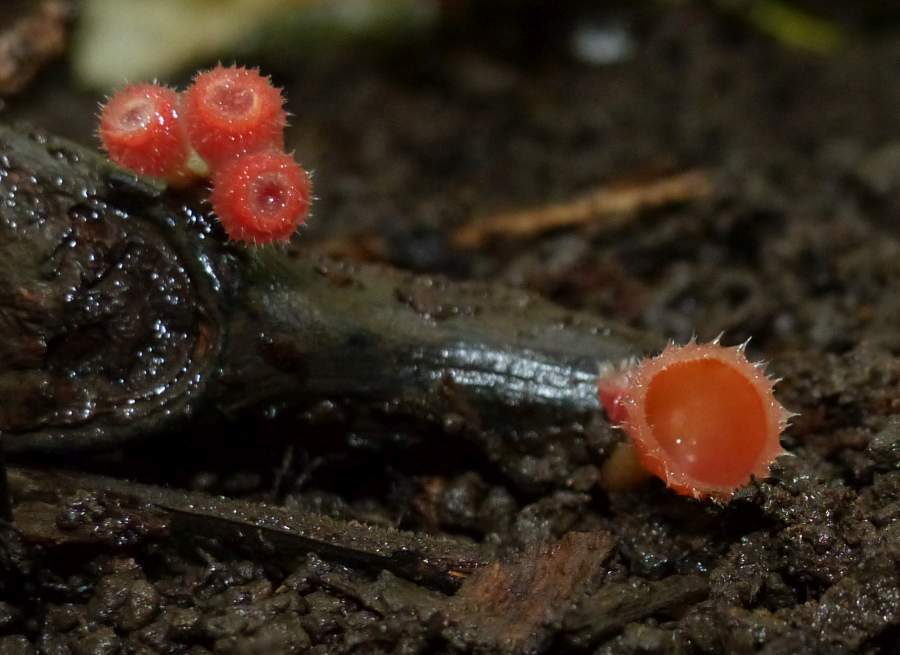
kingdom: Fungi
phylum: Ascomycota
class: Pezizomycetes
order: Pezizales
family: Sarcoscyphaceae
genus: Microstoma
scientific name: Microstoma floccosum
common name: Pink fringed faery cup
